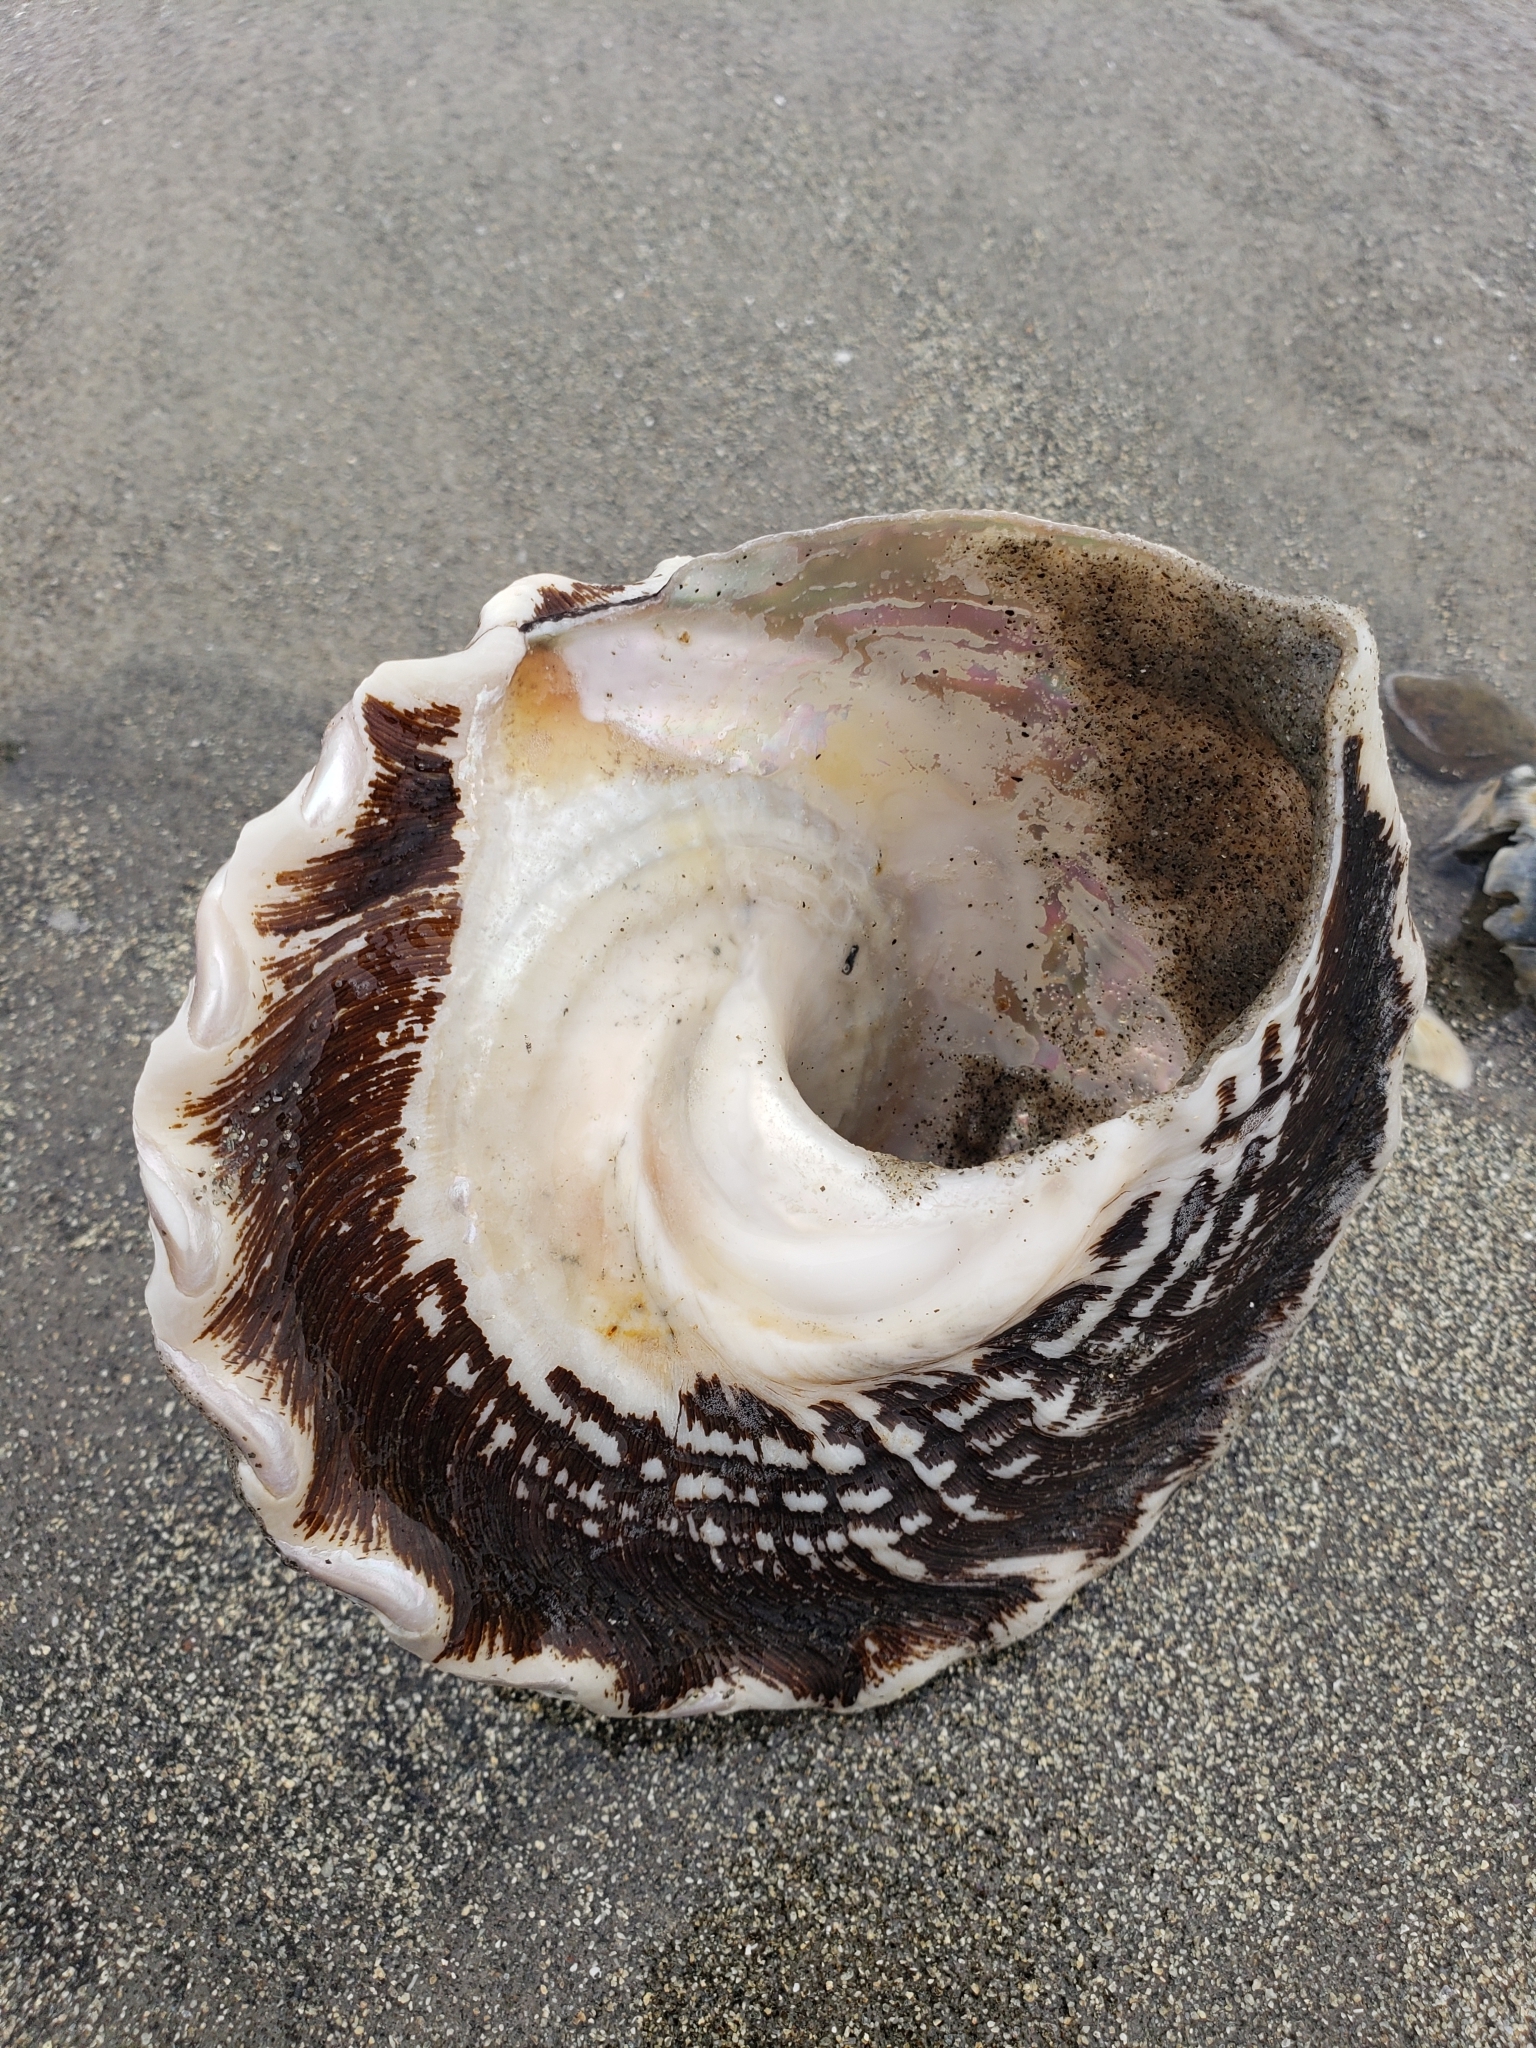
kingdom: Animalia
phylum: Mollusca
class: Gastropoda
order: Trochida
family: Turbinidae
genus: Megastraea
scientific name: Megastraea undosa
